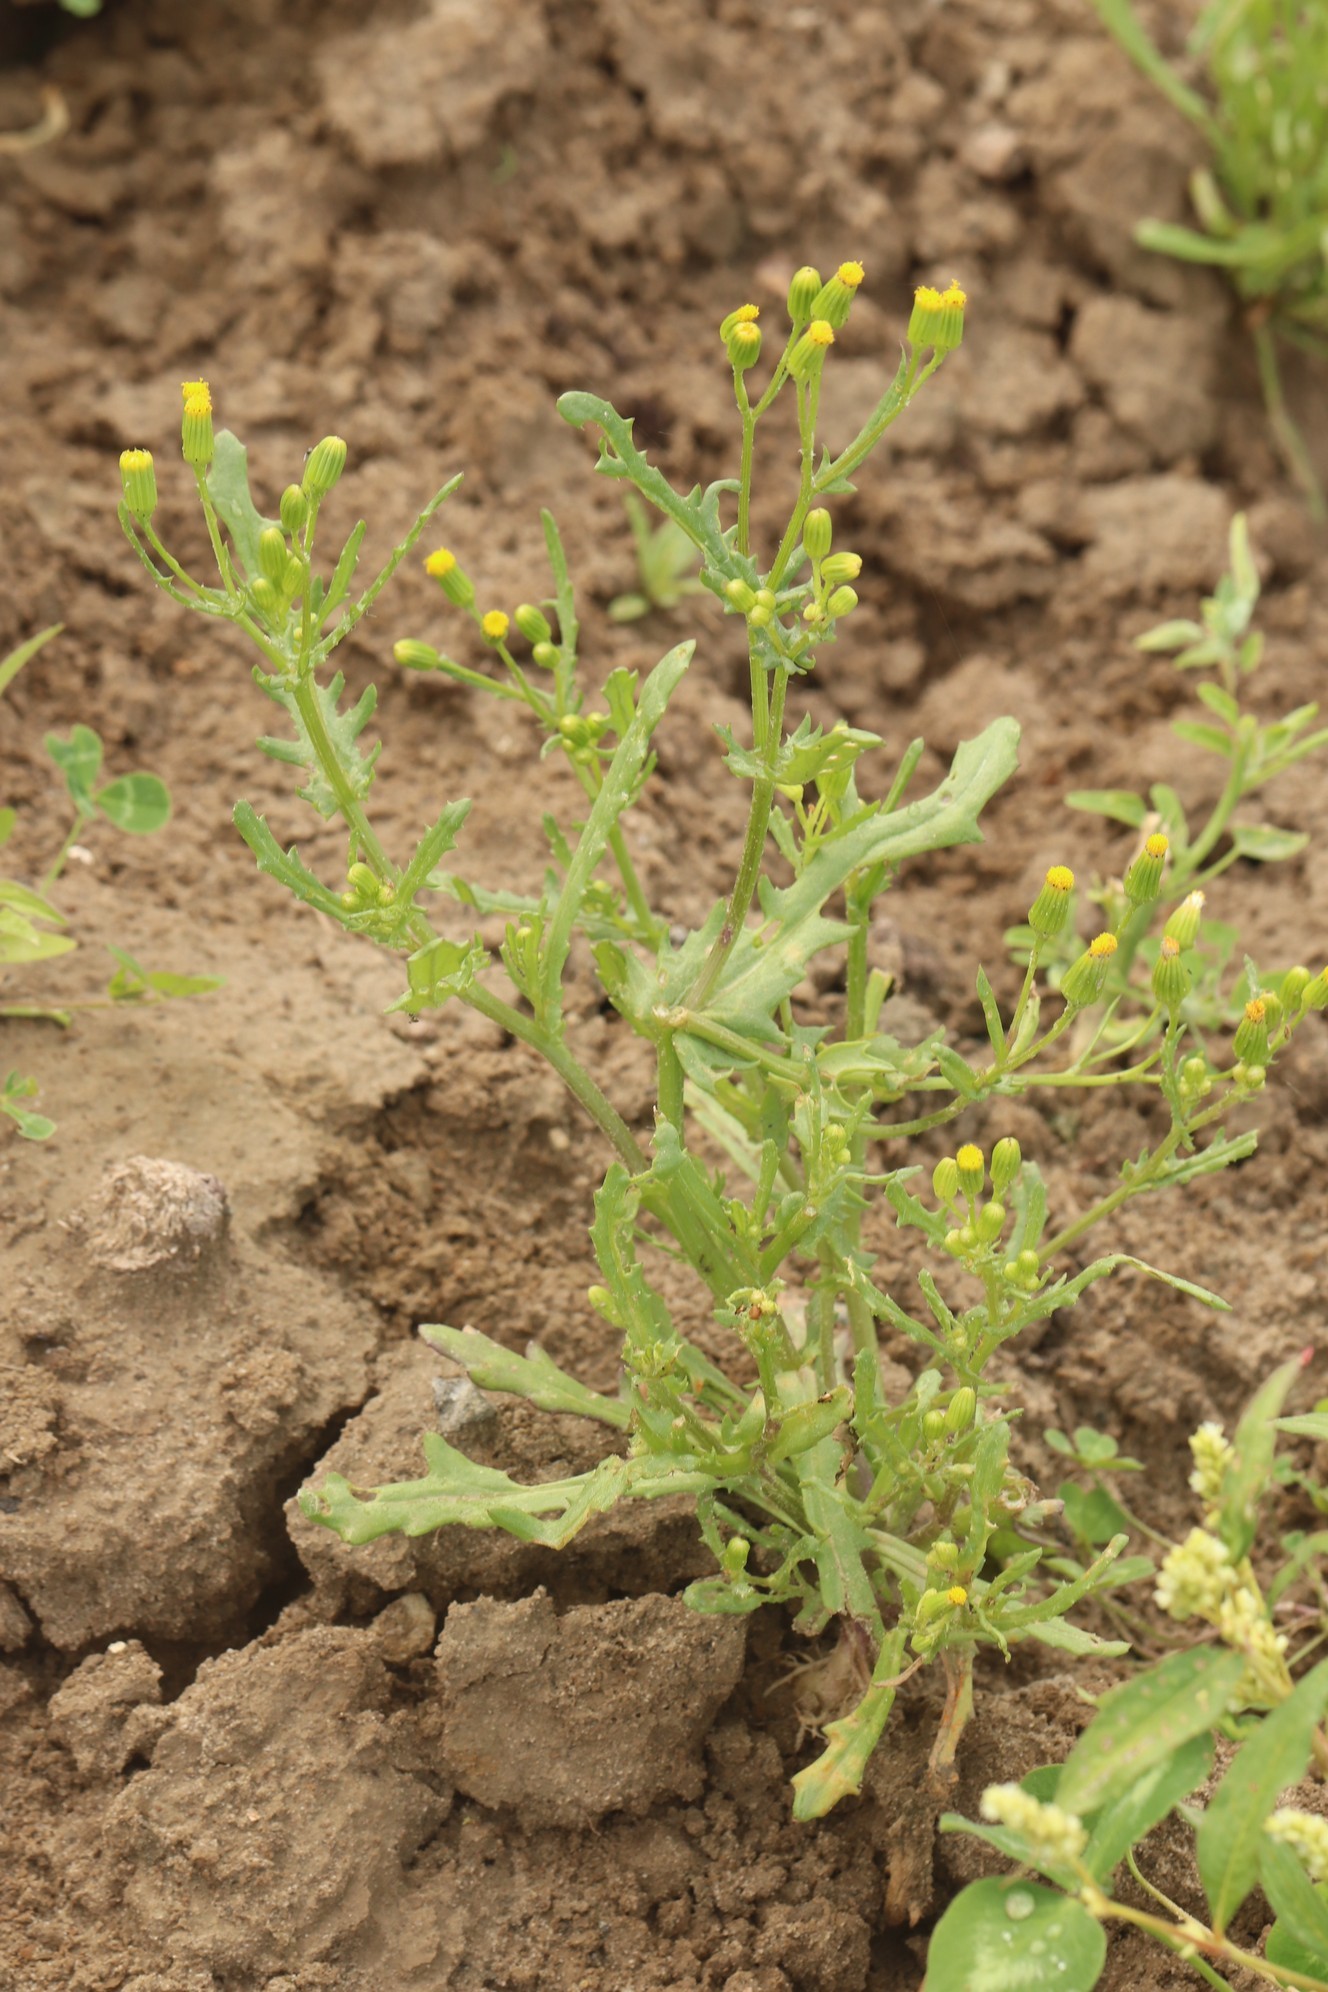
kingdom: Plantae
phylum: Tracheophyta
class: Magnoliopsida
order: Asterales
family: Asteraceae
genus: Senecio
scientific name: Senecio dubitabilis
